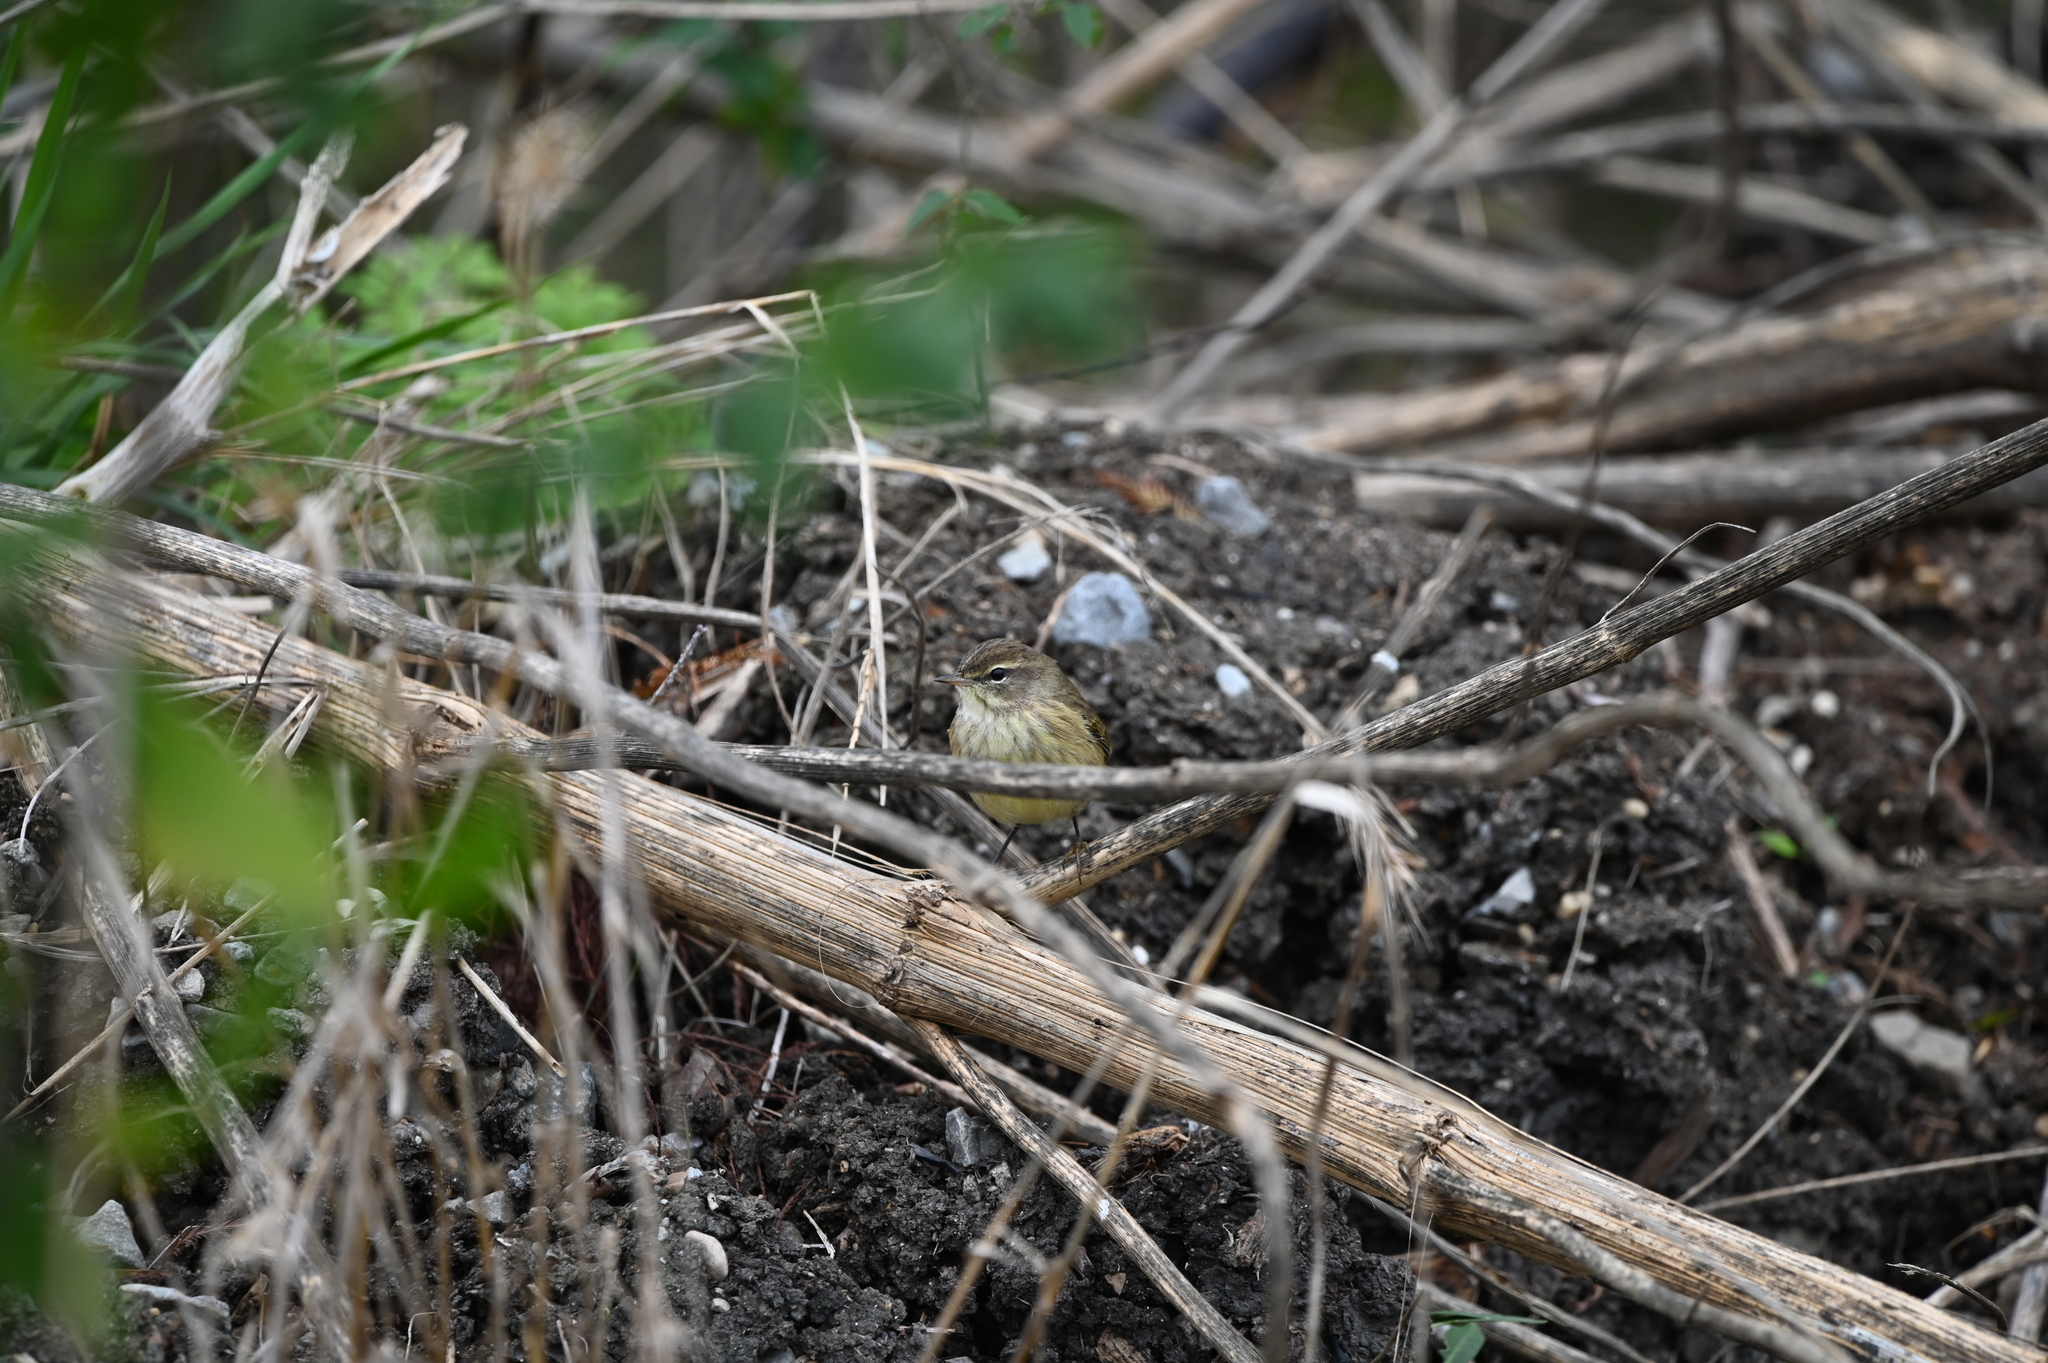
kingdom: Animalia
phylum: Chordata
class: Aves
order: Passeriformes
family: Parulidae
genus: Setophaga
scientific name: Setophaga palmarum
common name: Palm warbler
